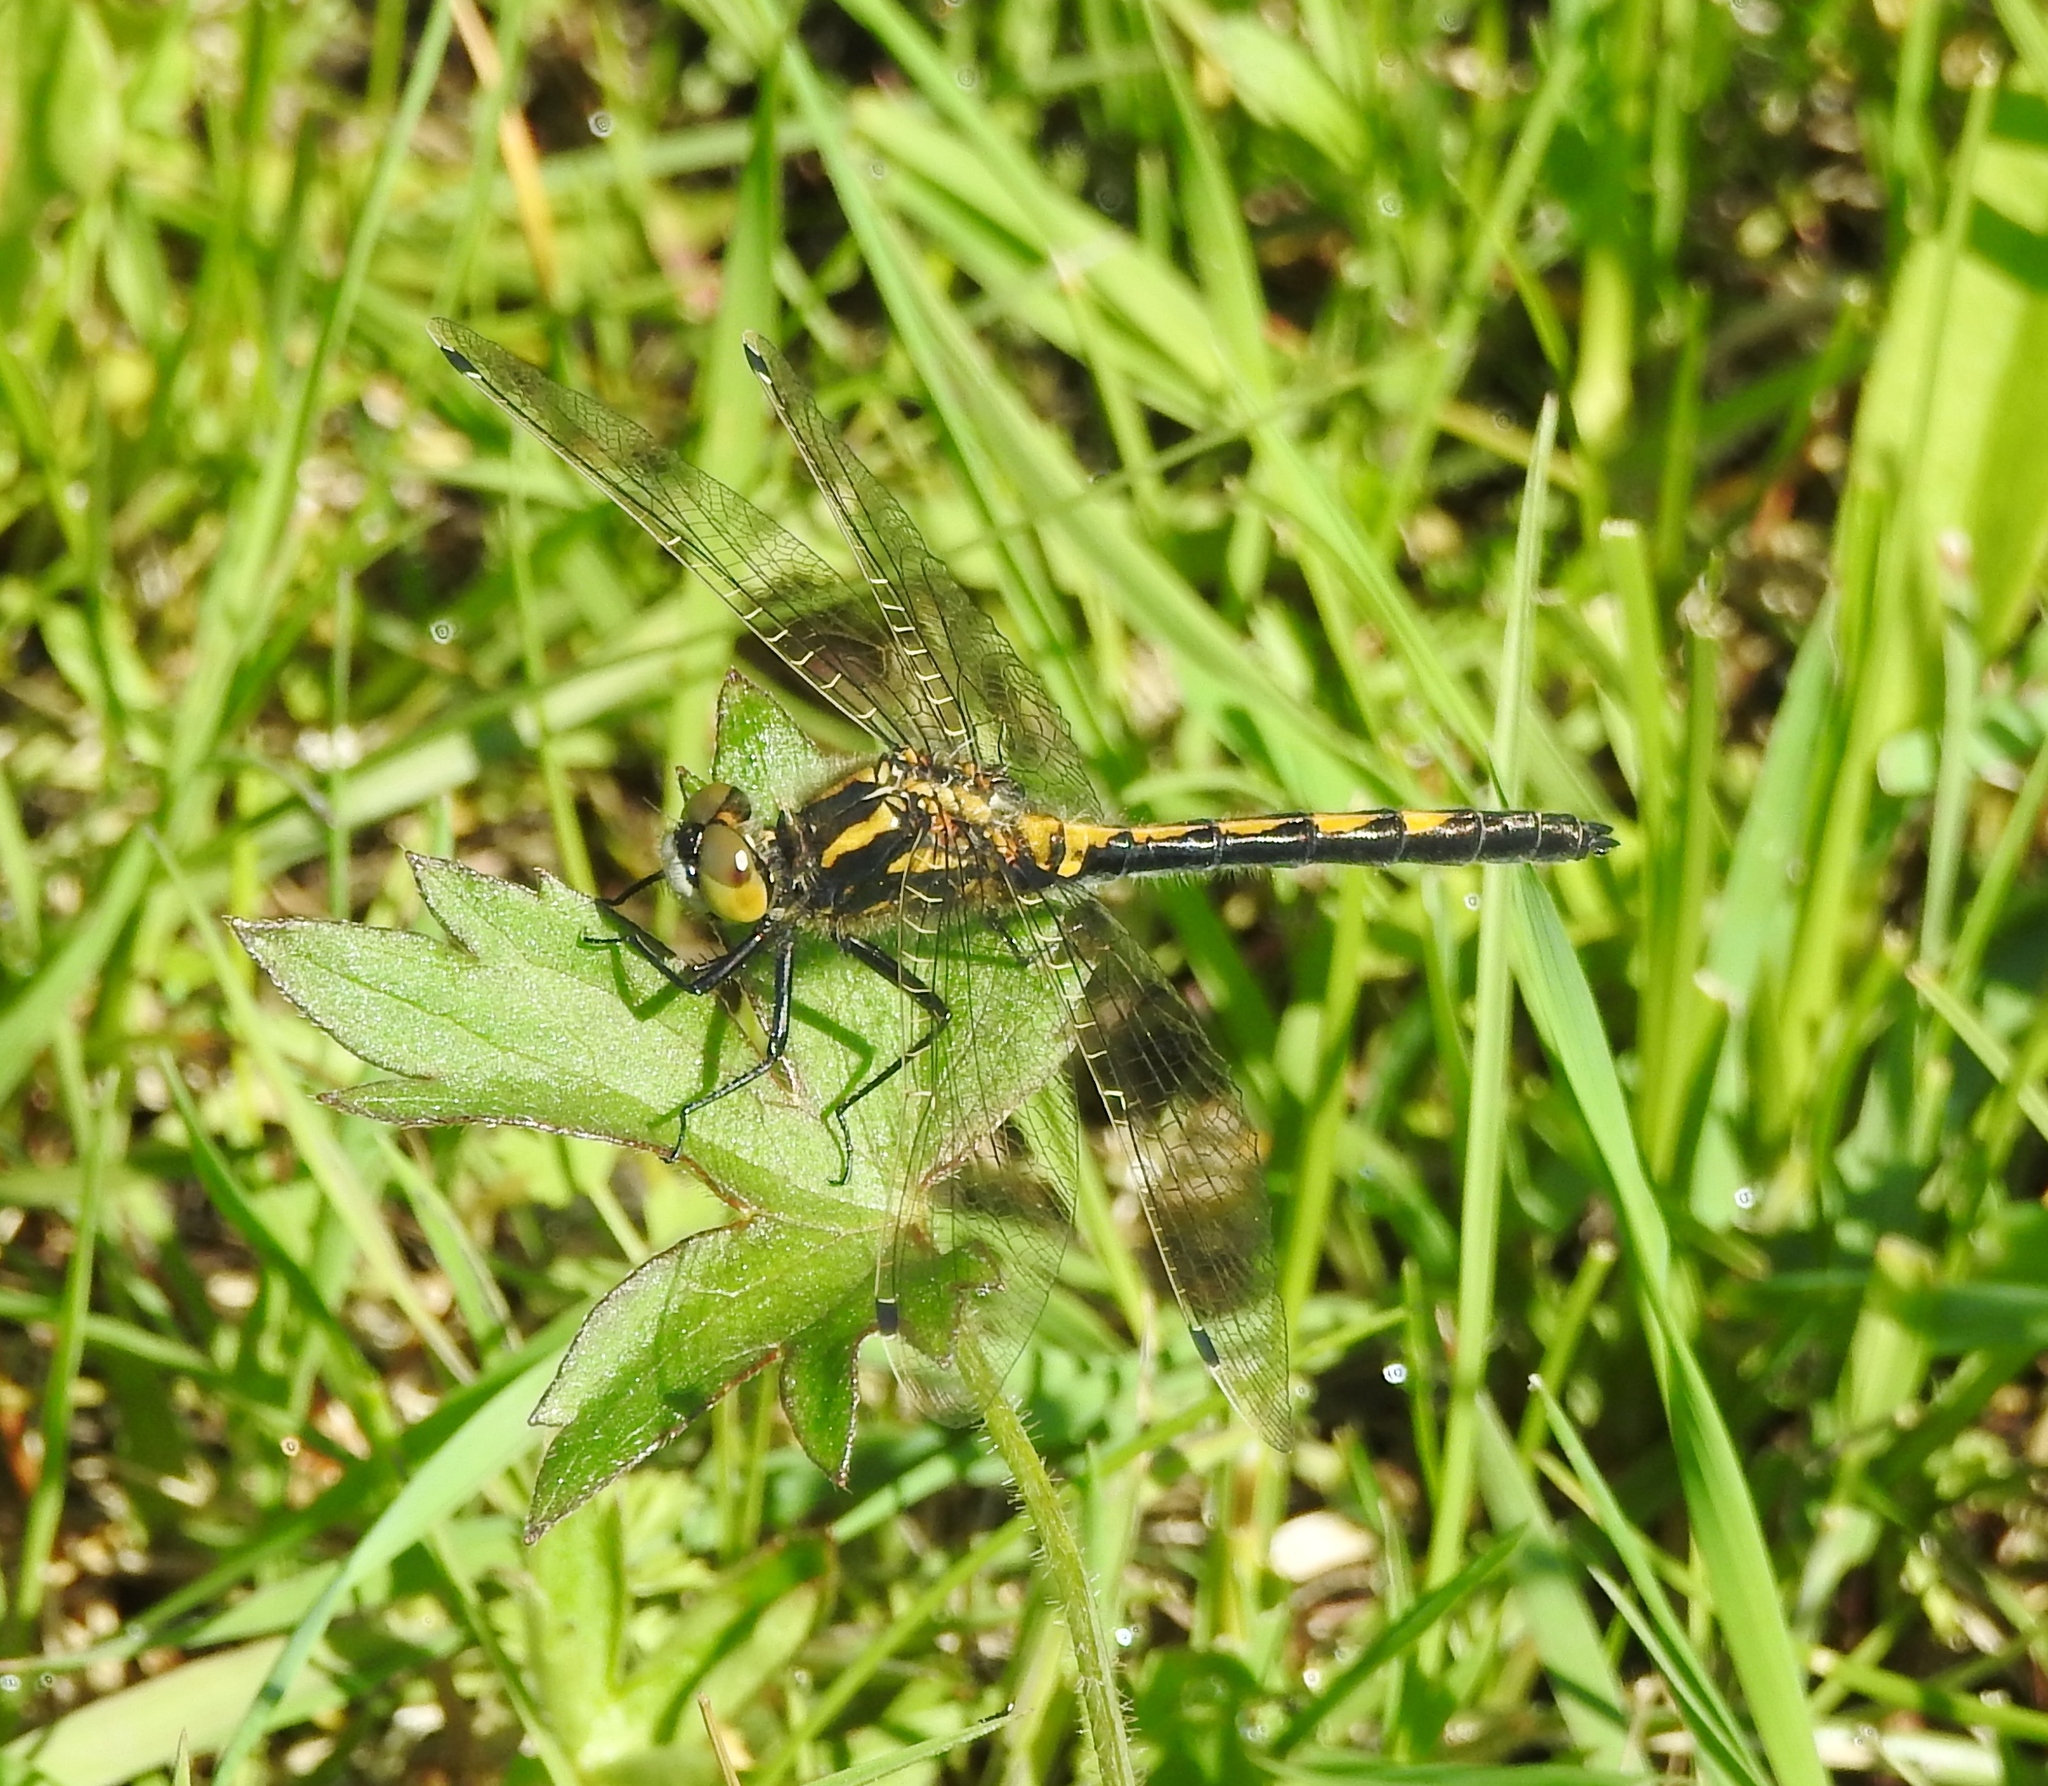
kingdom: Animalia
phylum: Arthropoda
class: Insecta
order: Odonata
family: Libellulidae
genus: Leucorrhinia
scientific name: Leucorrhinia intermedia
